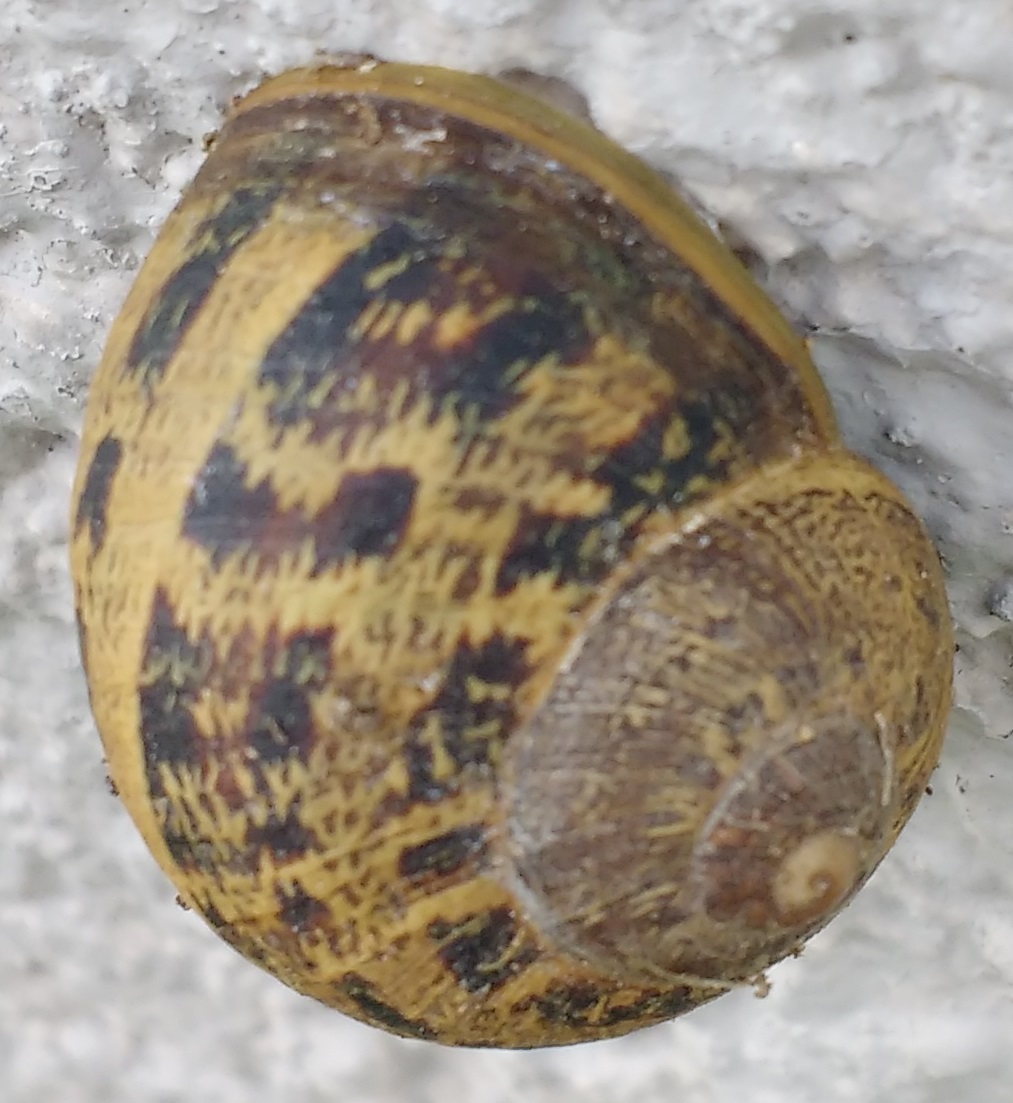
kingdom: Animalia
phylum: Mollusca
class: Gastropoda
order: Stylommatophora
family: Helicidae
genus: Cornu
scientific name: Cornu aspersum
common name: Brown garden snail
